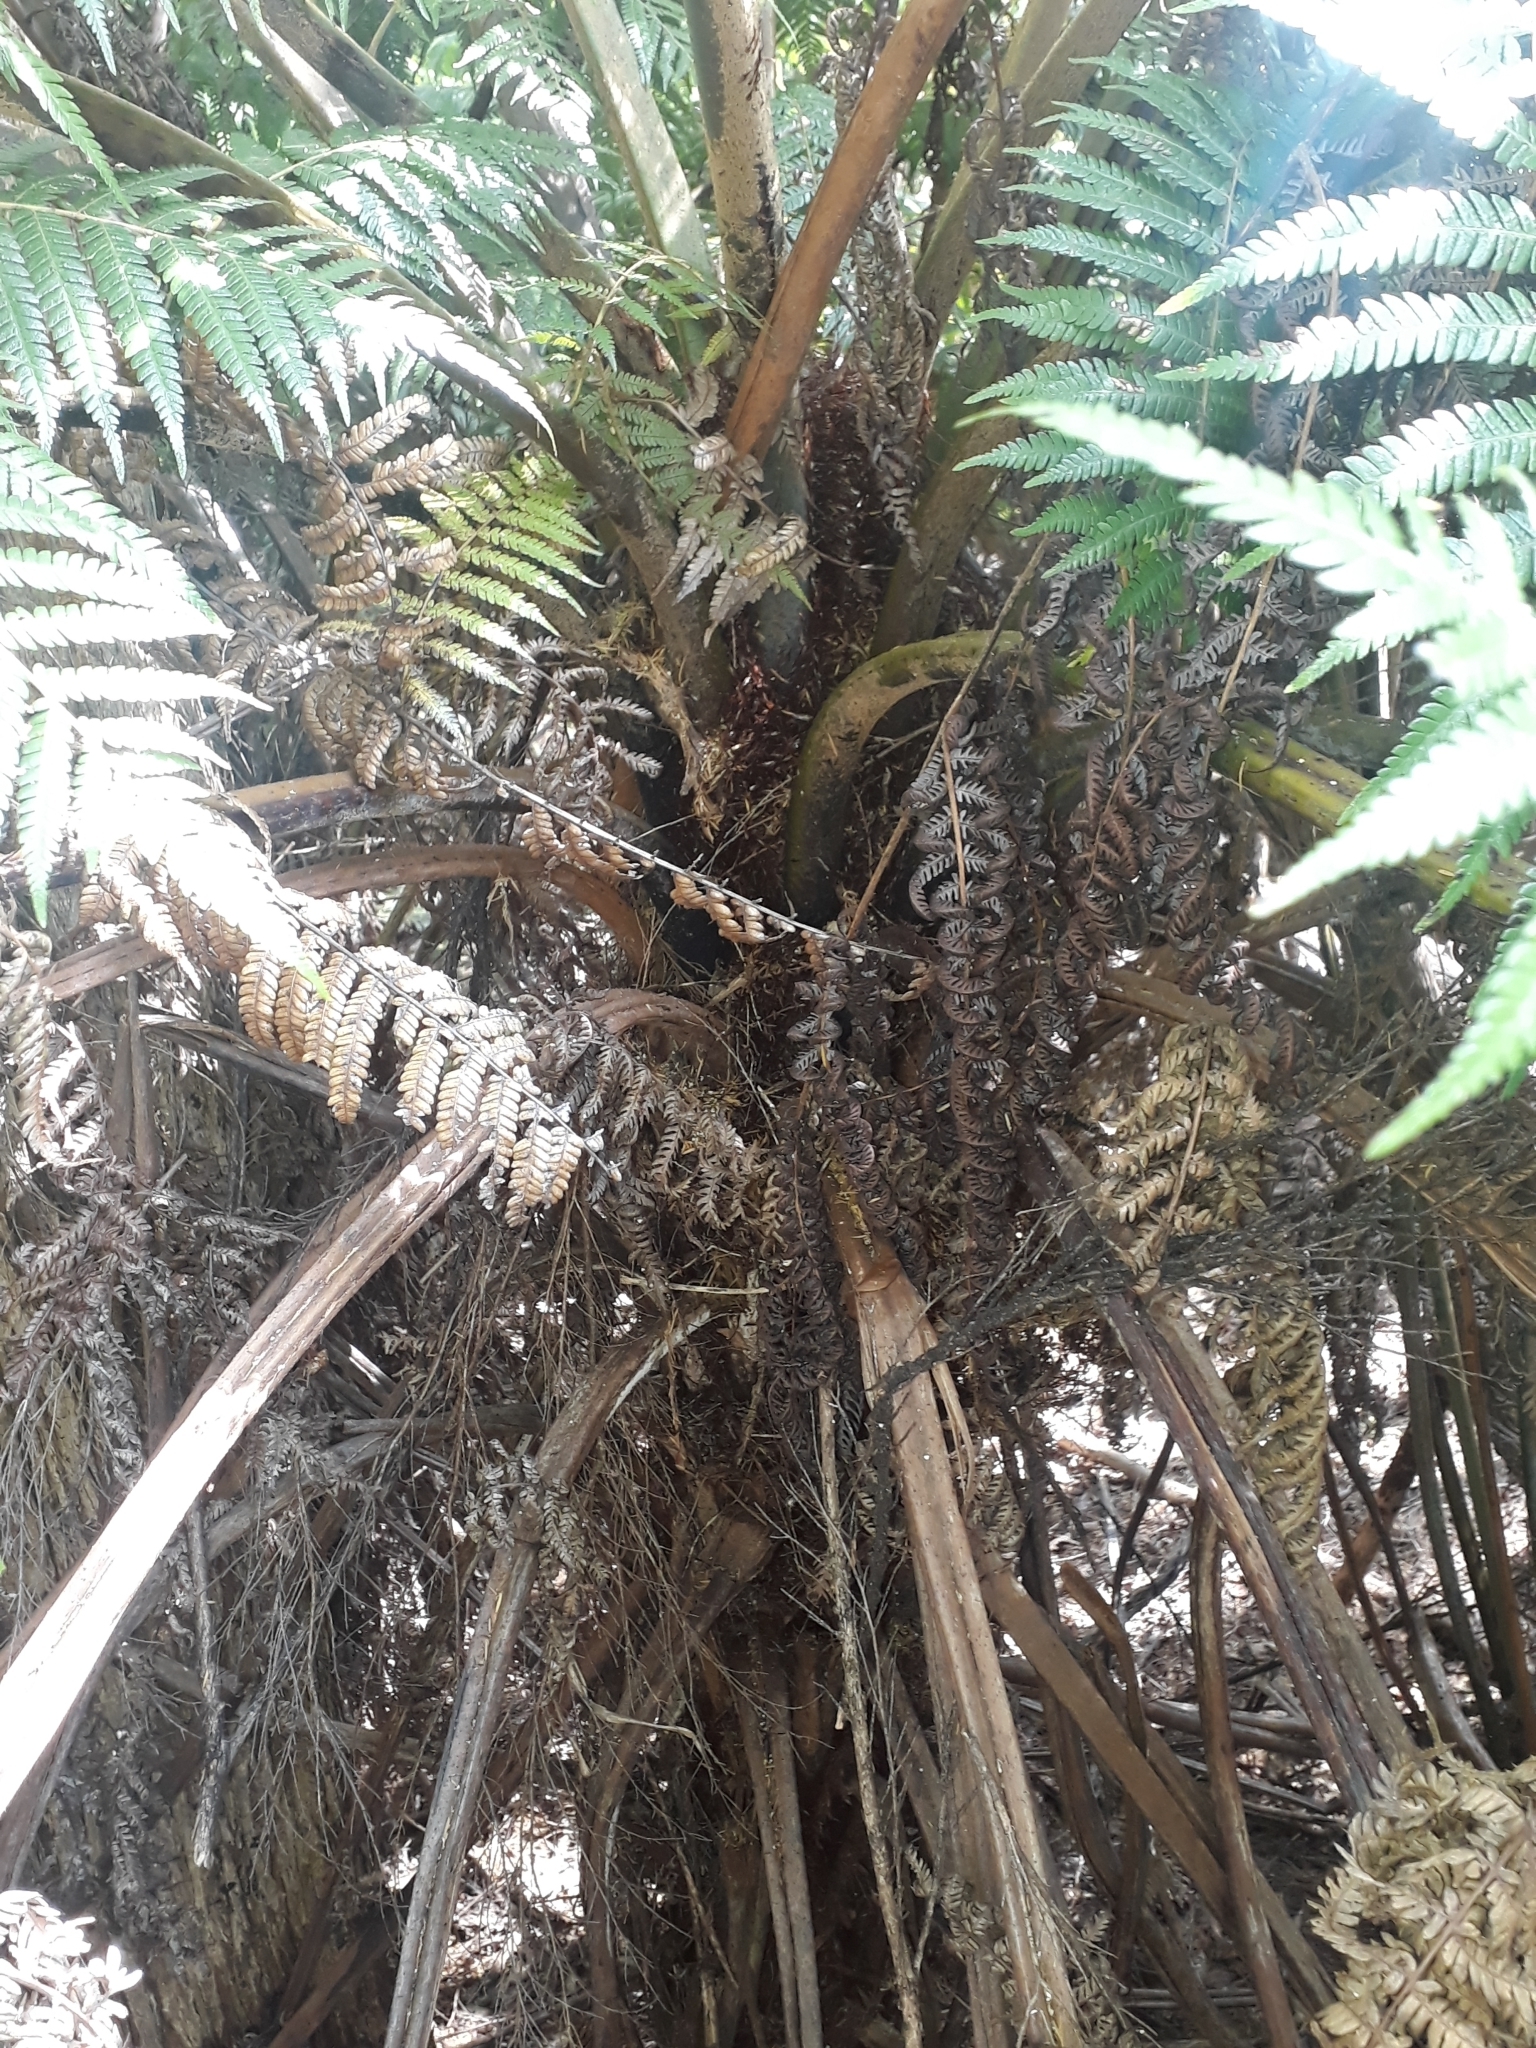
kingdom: Plantae
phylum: Tracheophyta
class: Polypodiopsida
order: Cyatheales
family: Cyatheaceae
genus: Alsophila
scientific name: Alsophila dealbata
